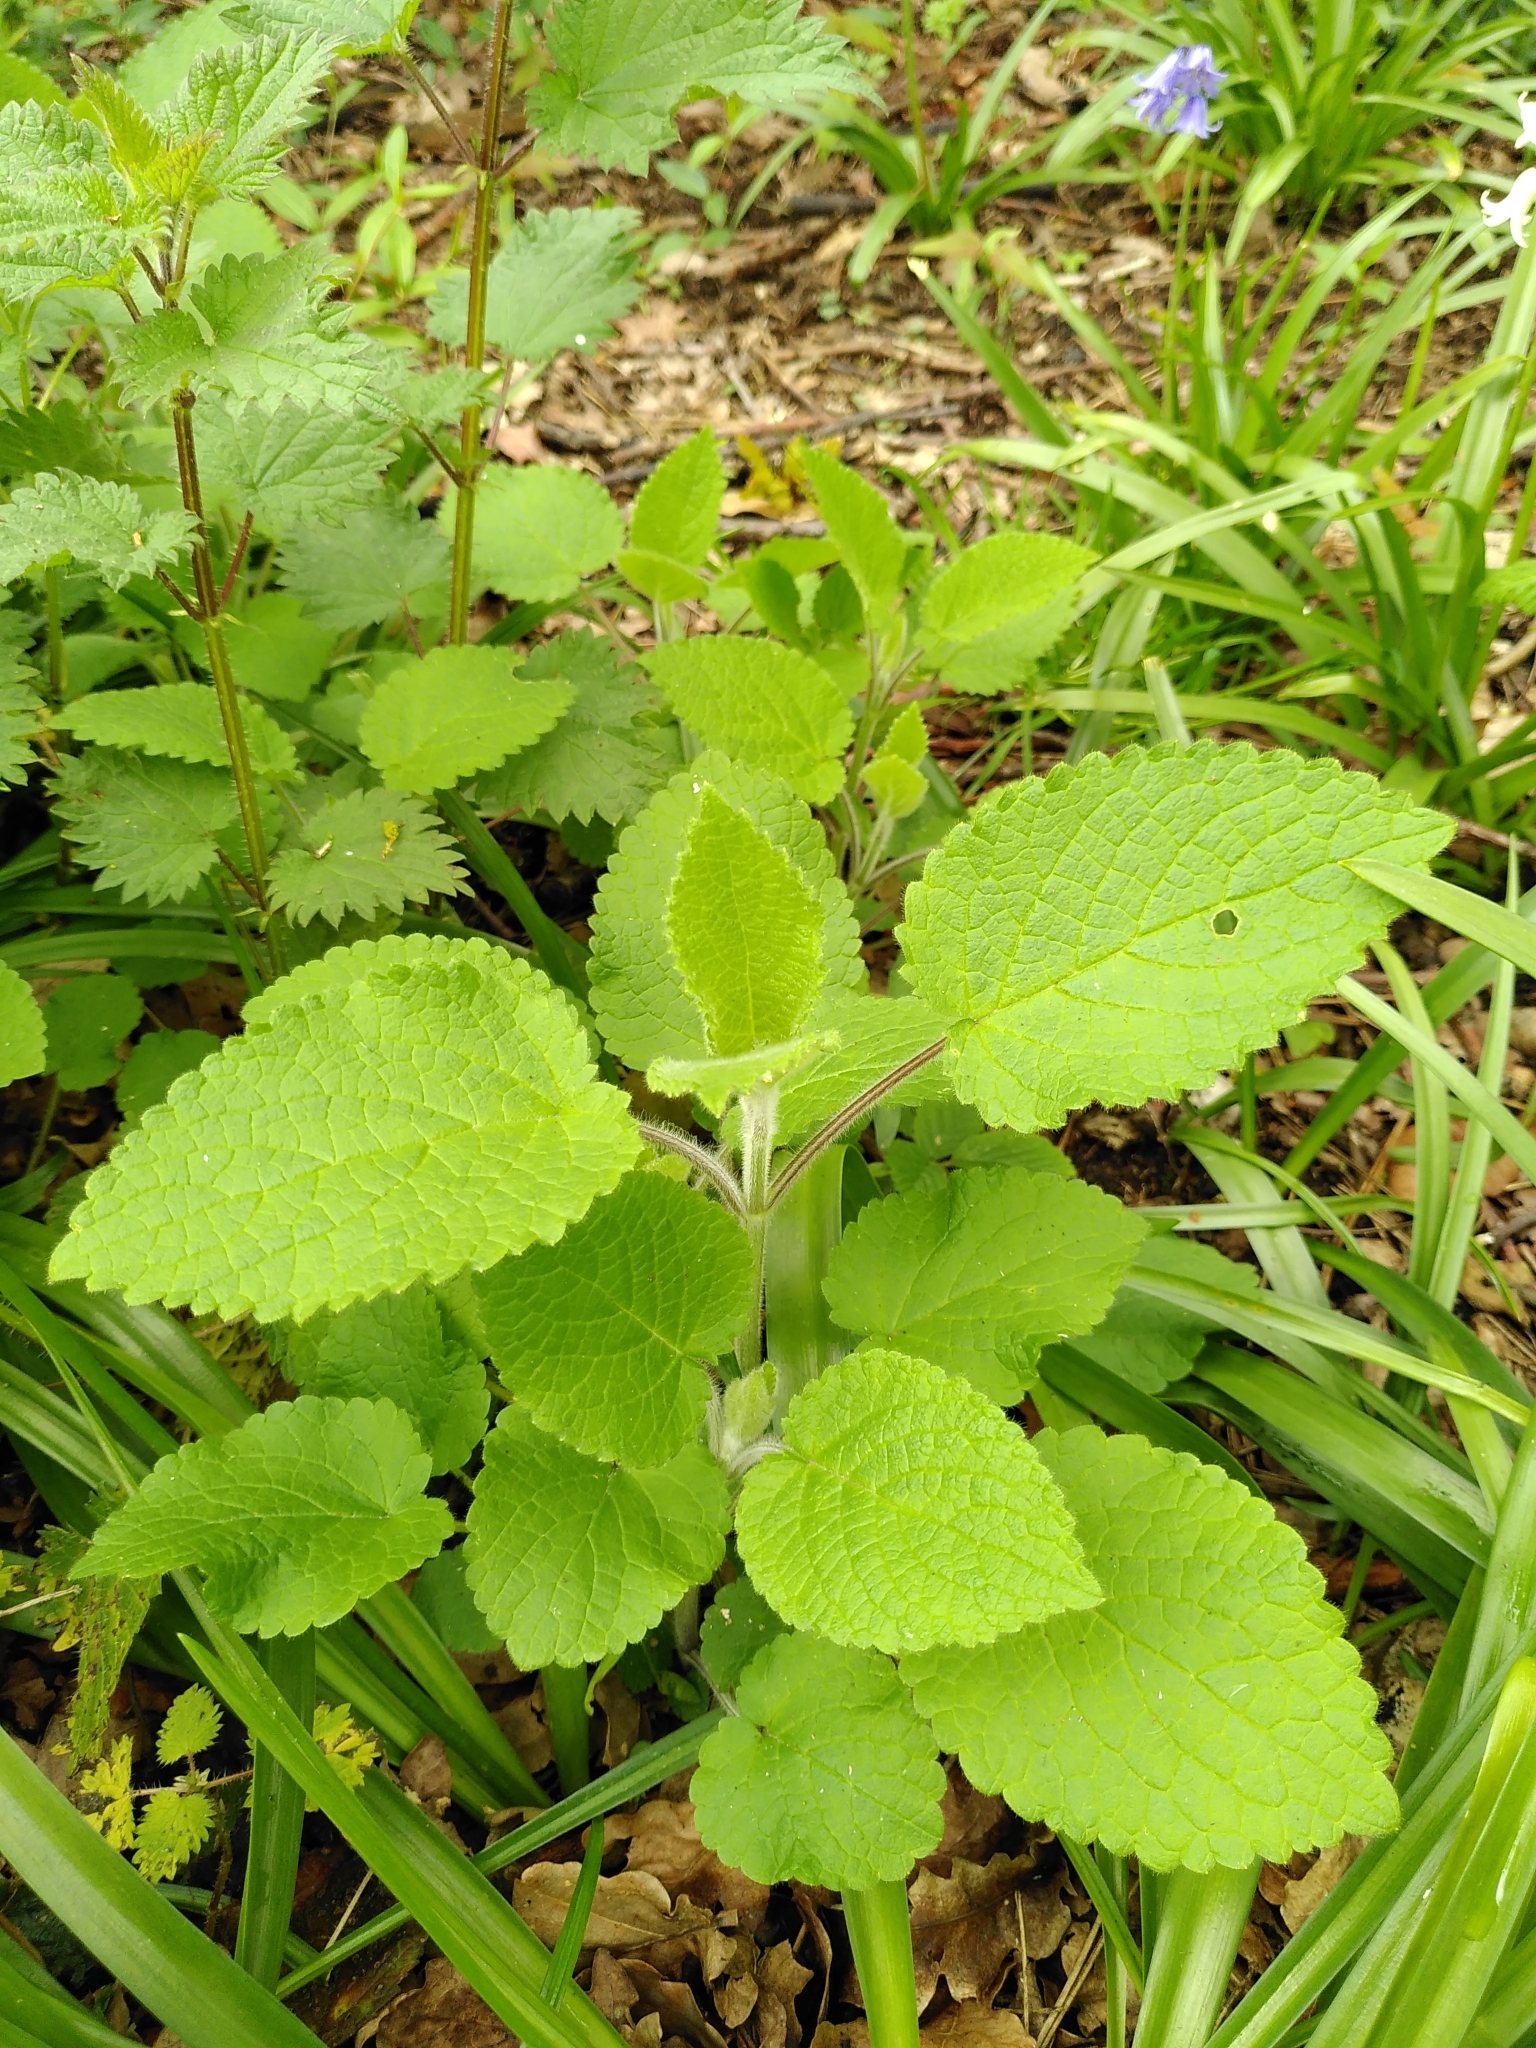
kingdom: Plantae
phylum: Tracheophyta
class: Magnoliopsida
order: Lamiales
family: Lamiaceae
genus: Stachys
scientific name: Stachys sylvatica
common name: Hedge woundwort
